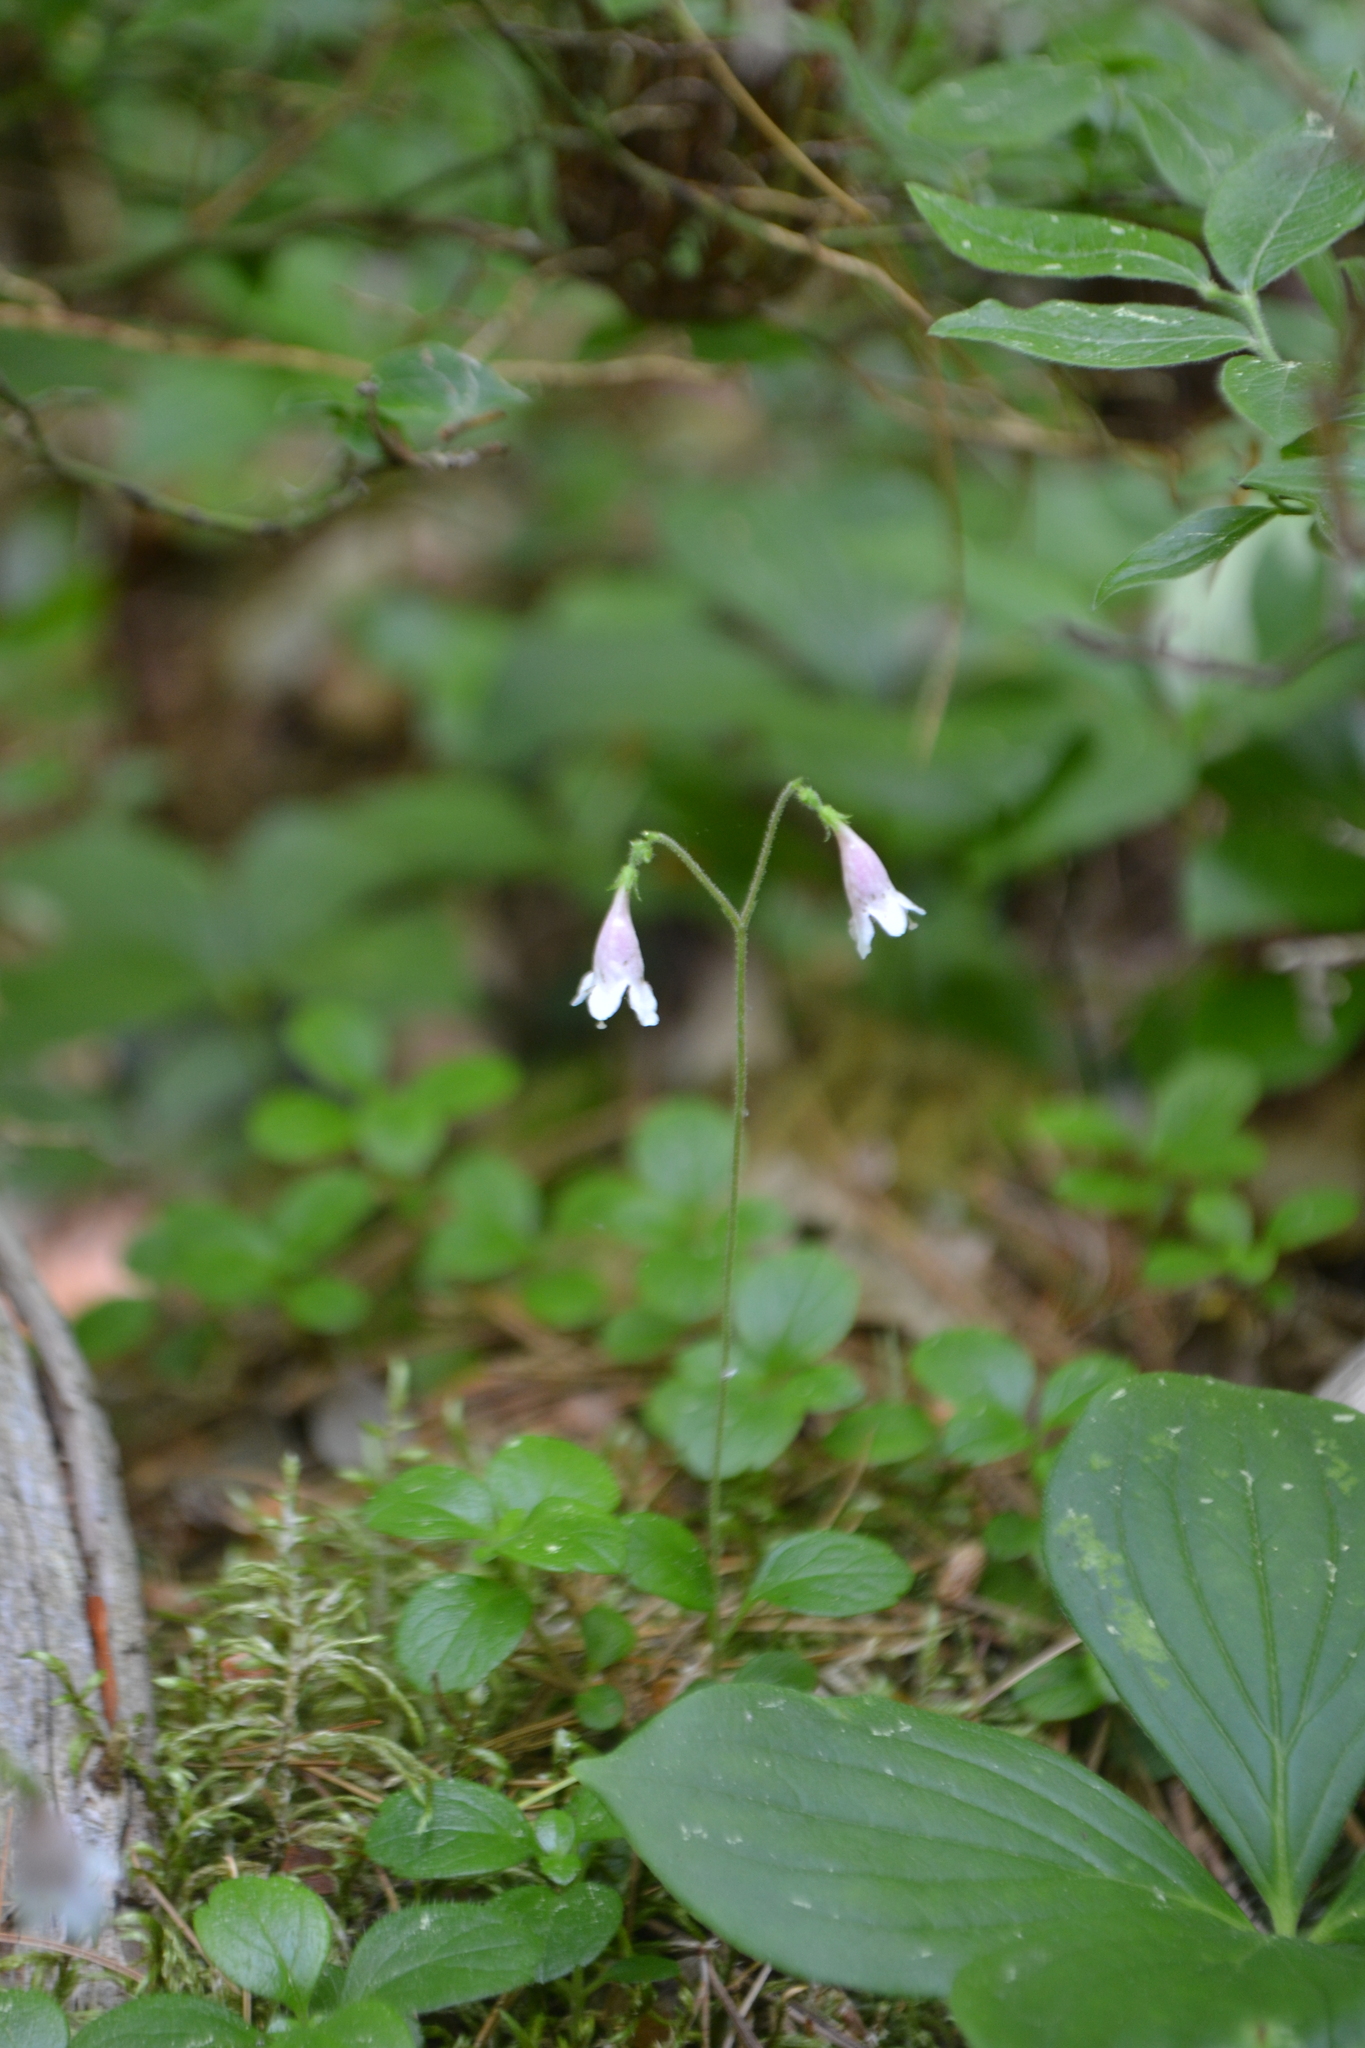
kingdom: Plantae
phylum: Tracheophyta
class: Magnoliopsida
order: Dipsacales
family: Caprifoliaceae
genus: Linnaea
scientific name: Linnaea borealis
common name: Twinflower
